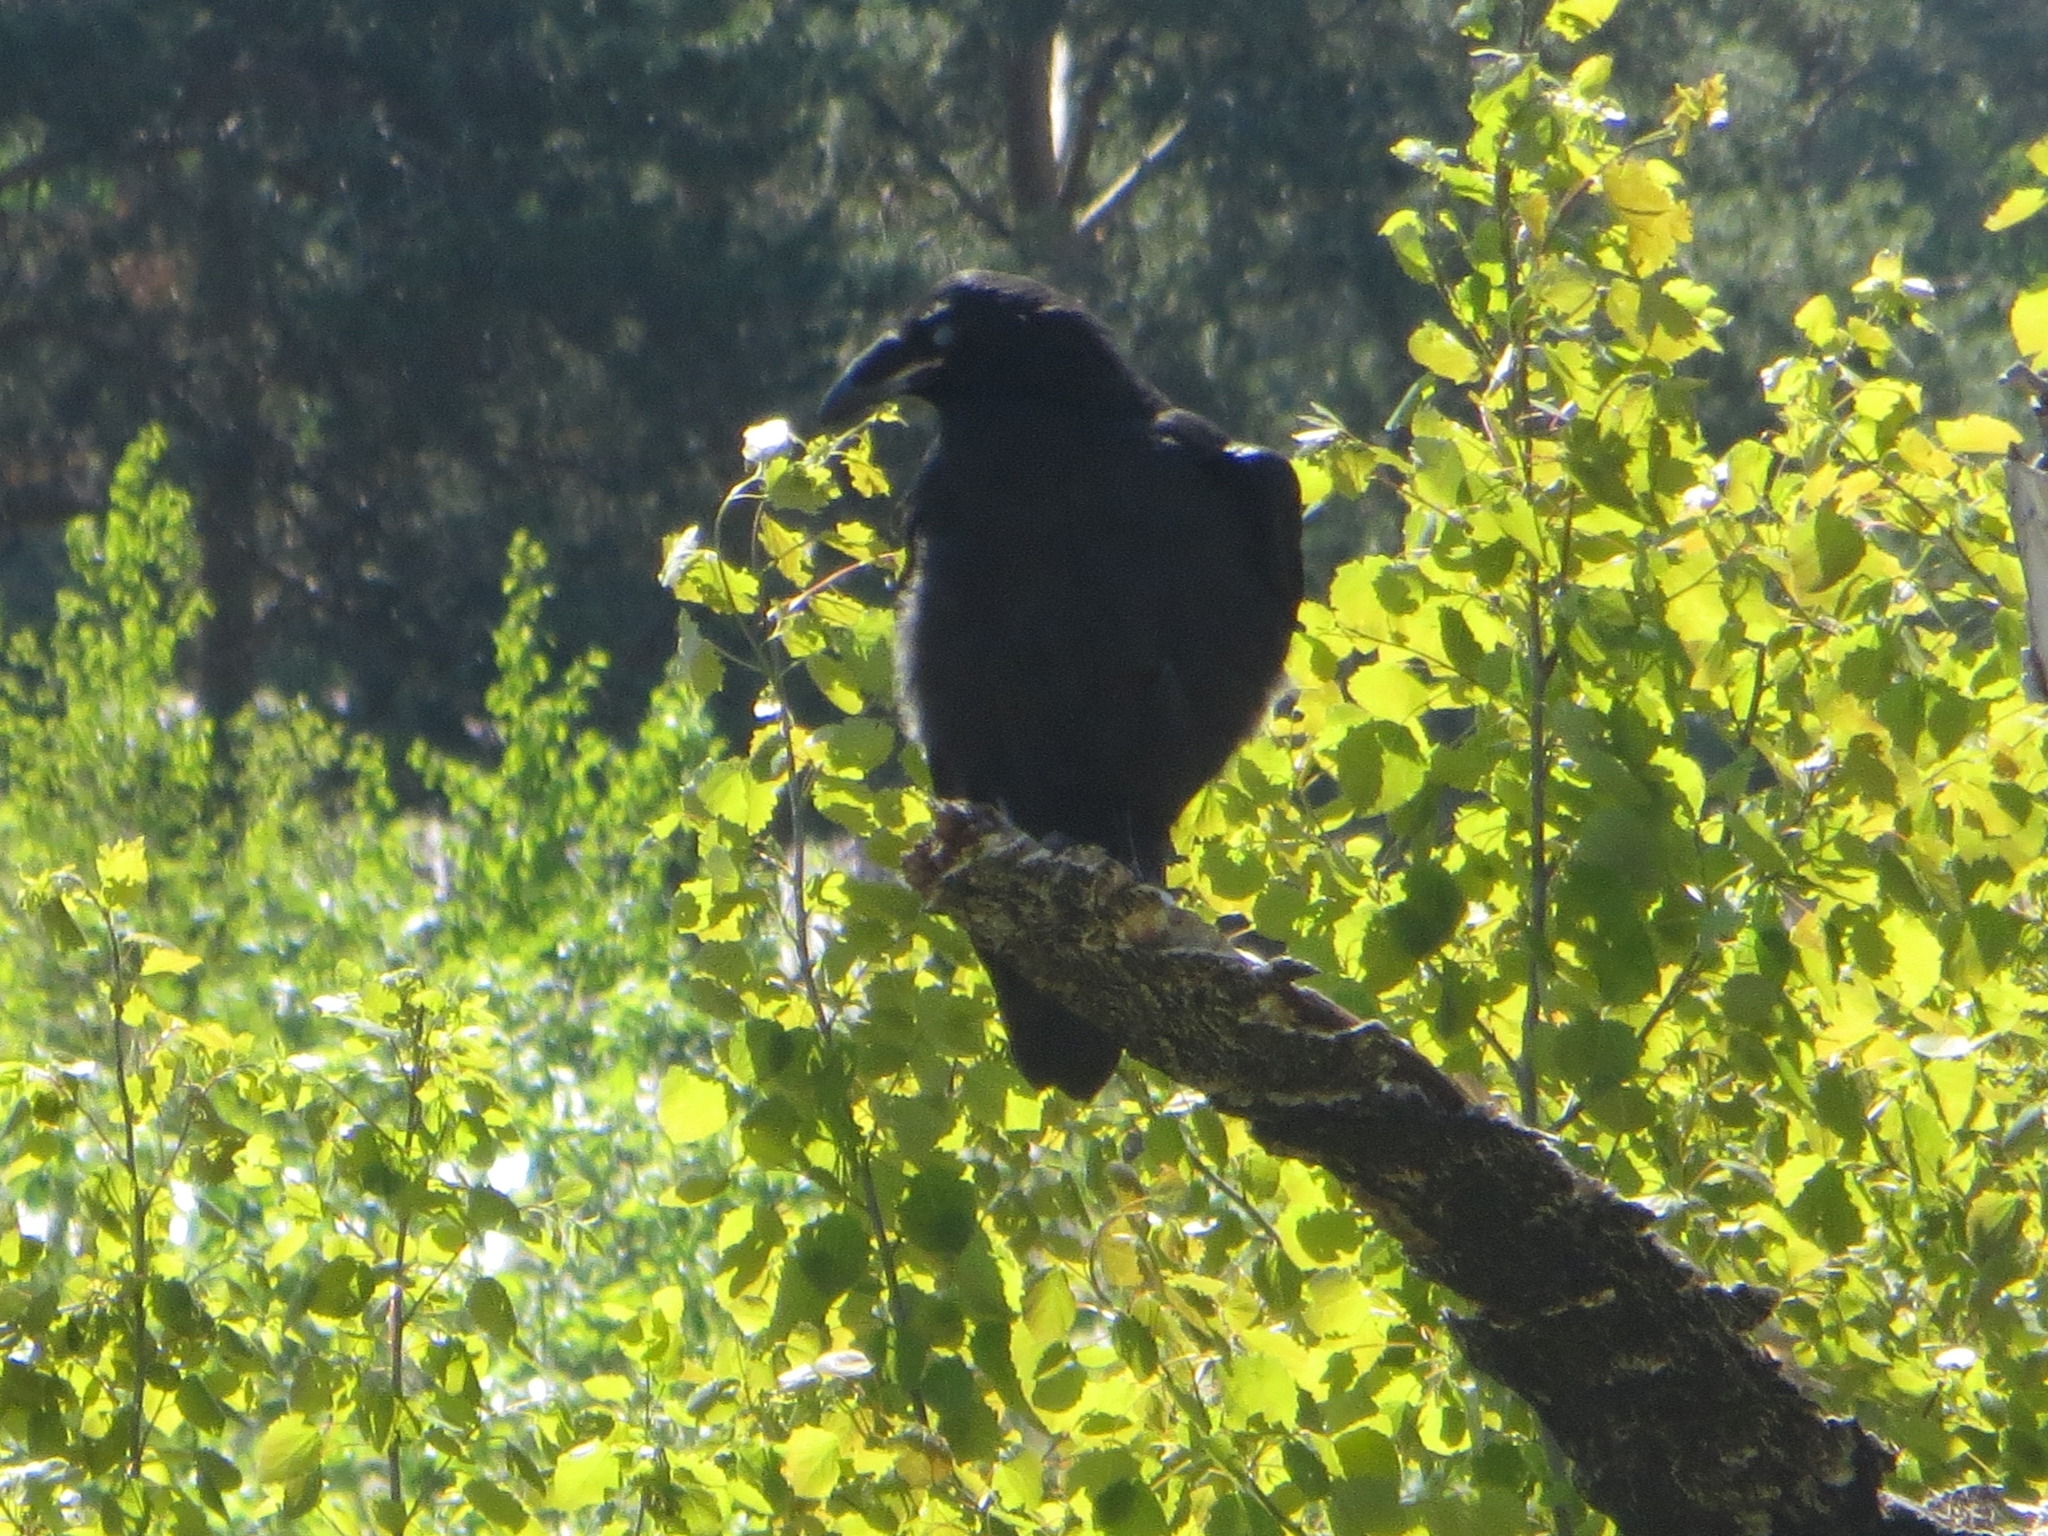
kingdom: Animalia
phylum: Chordata
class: Aves
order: Passeriformes
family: Corvidae
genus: Corvus
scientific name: Corvus corax
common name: Common raven
